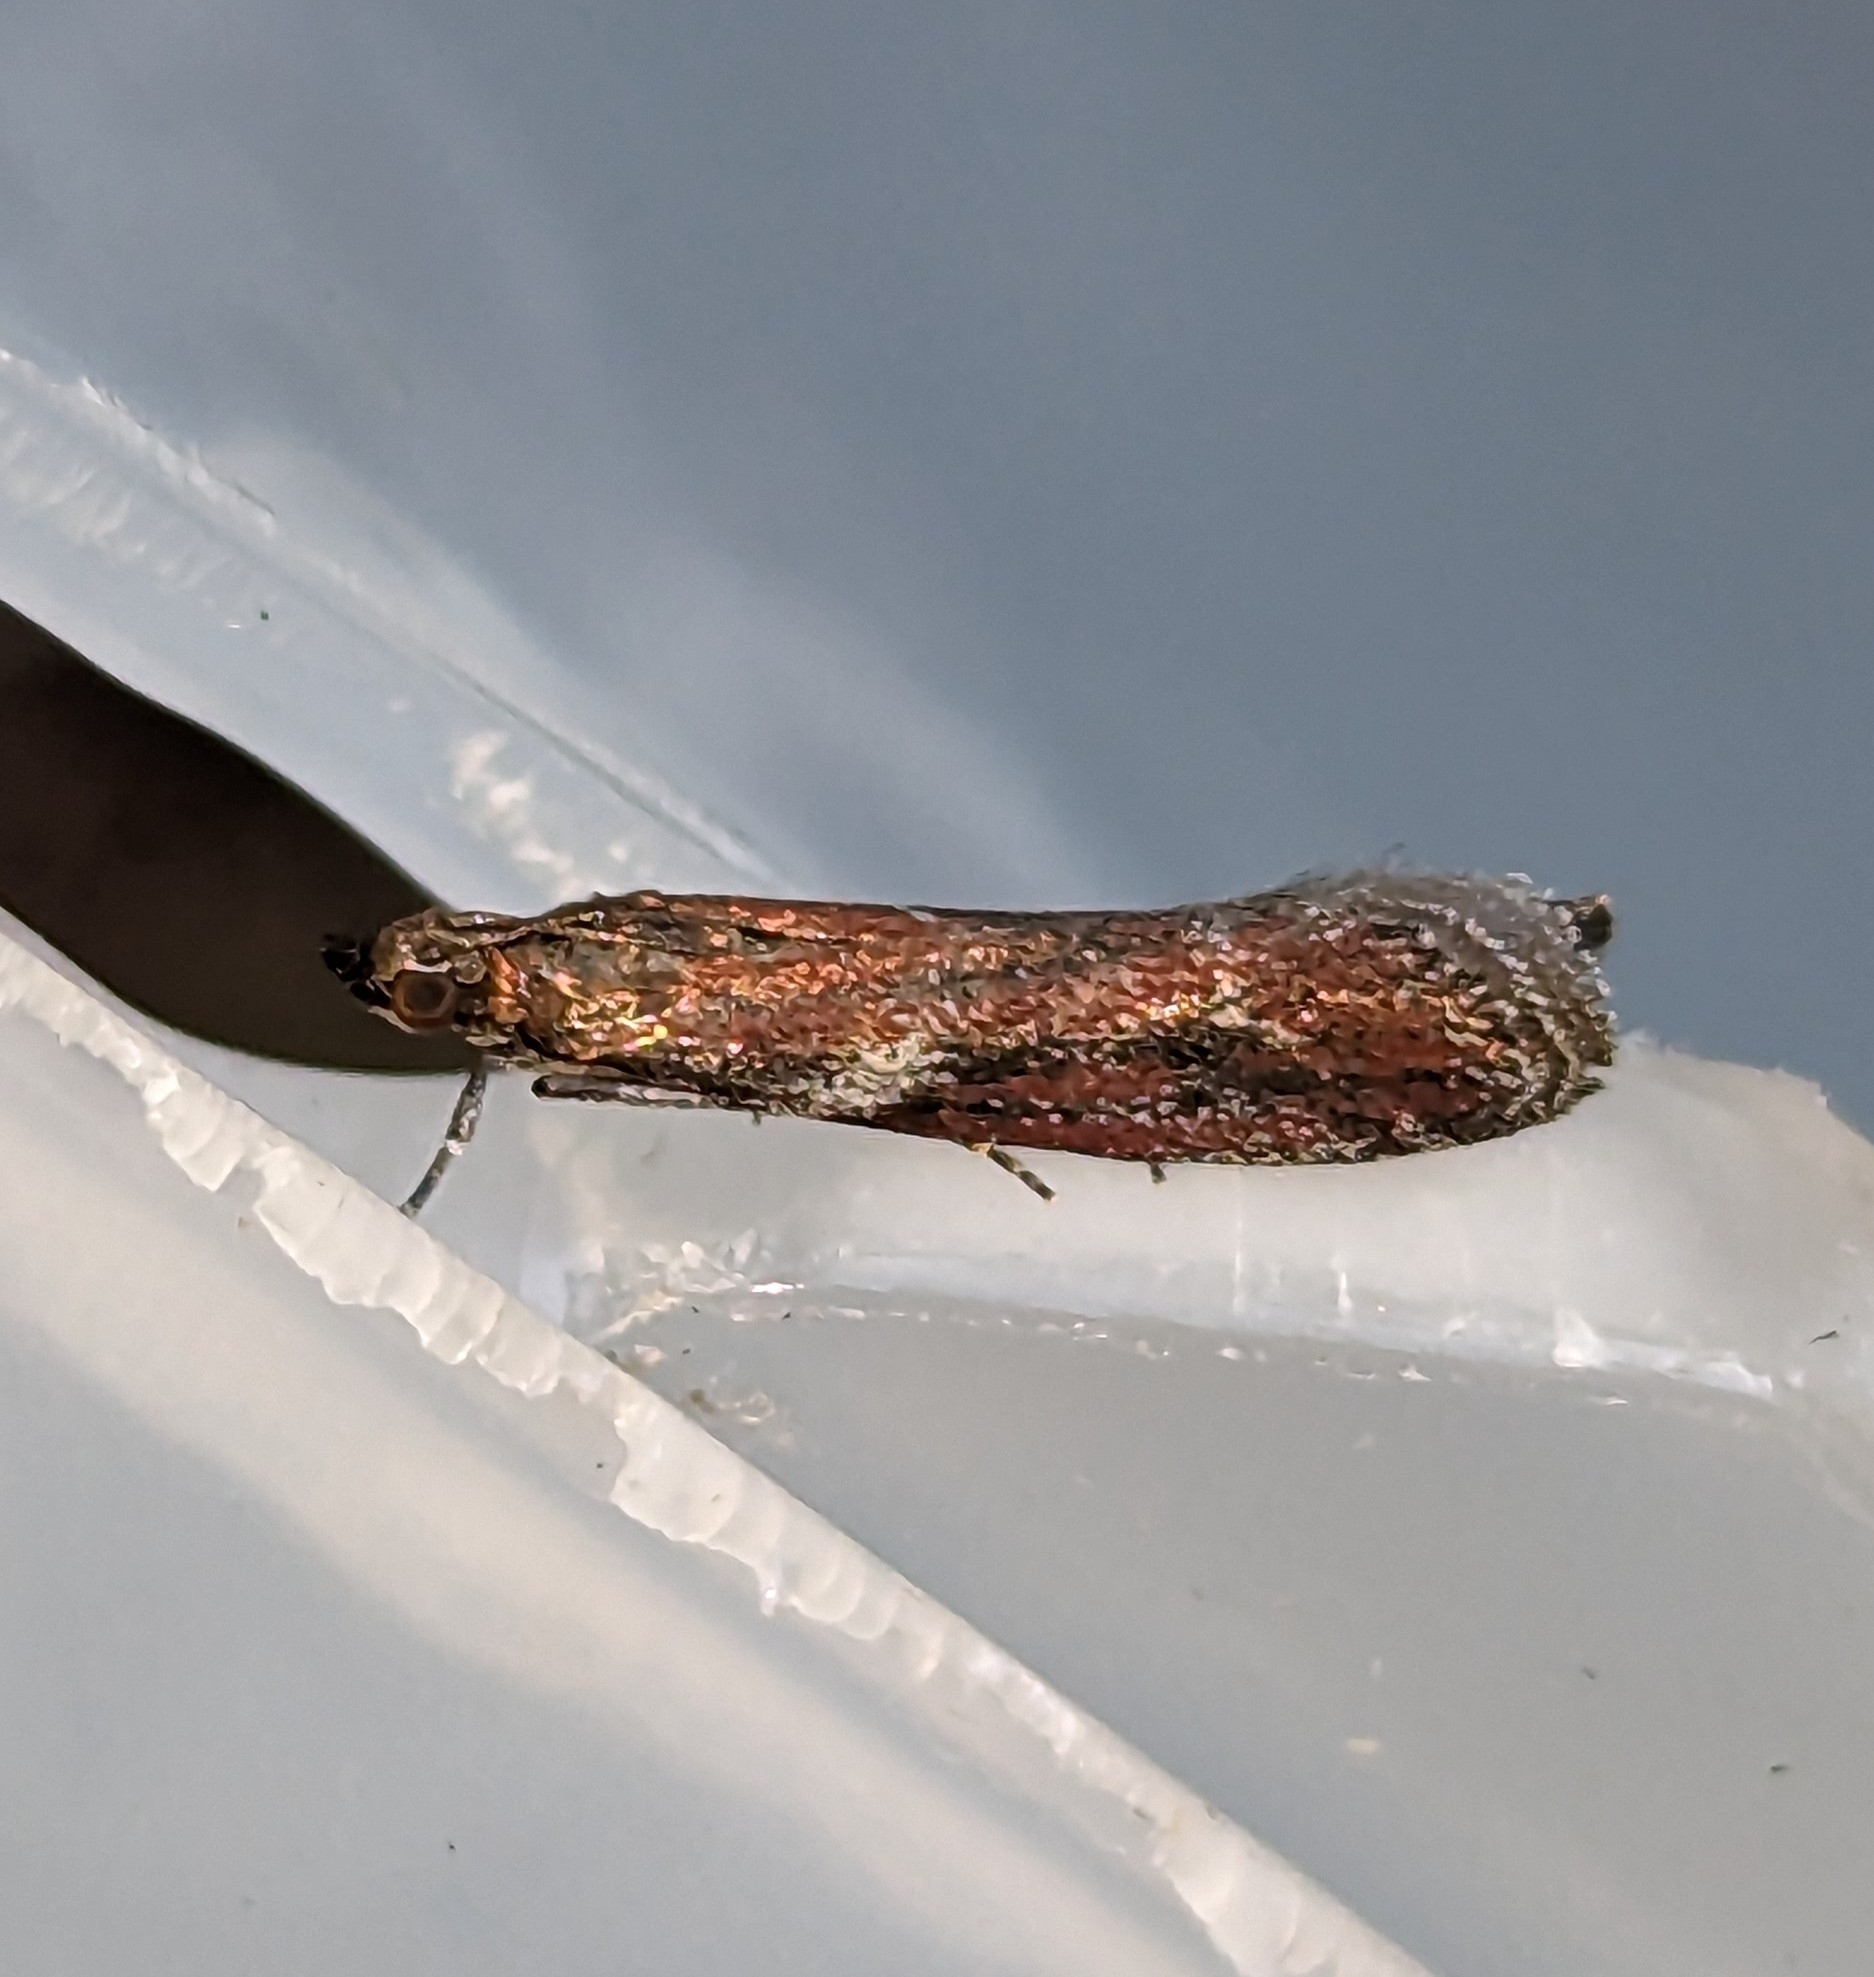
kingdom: Animalia
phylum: Arthropoda
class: Insecta
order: Lepidoptera
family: Pyralidae
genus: Ephestiodes
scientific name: Ephestiodes erythrella
